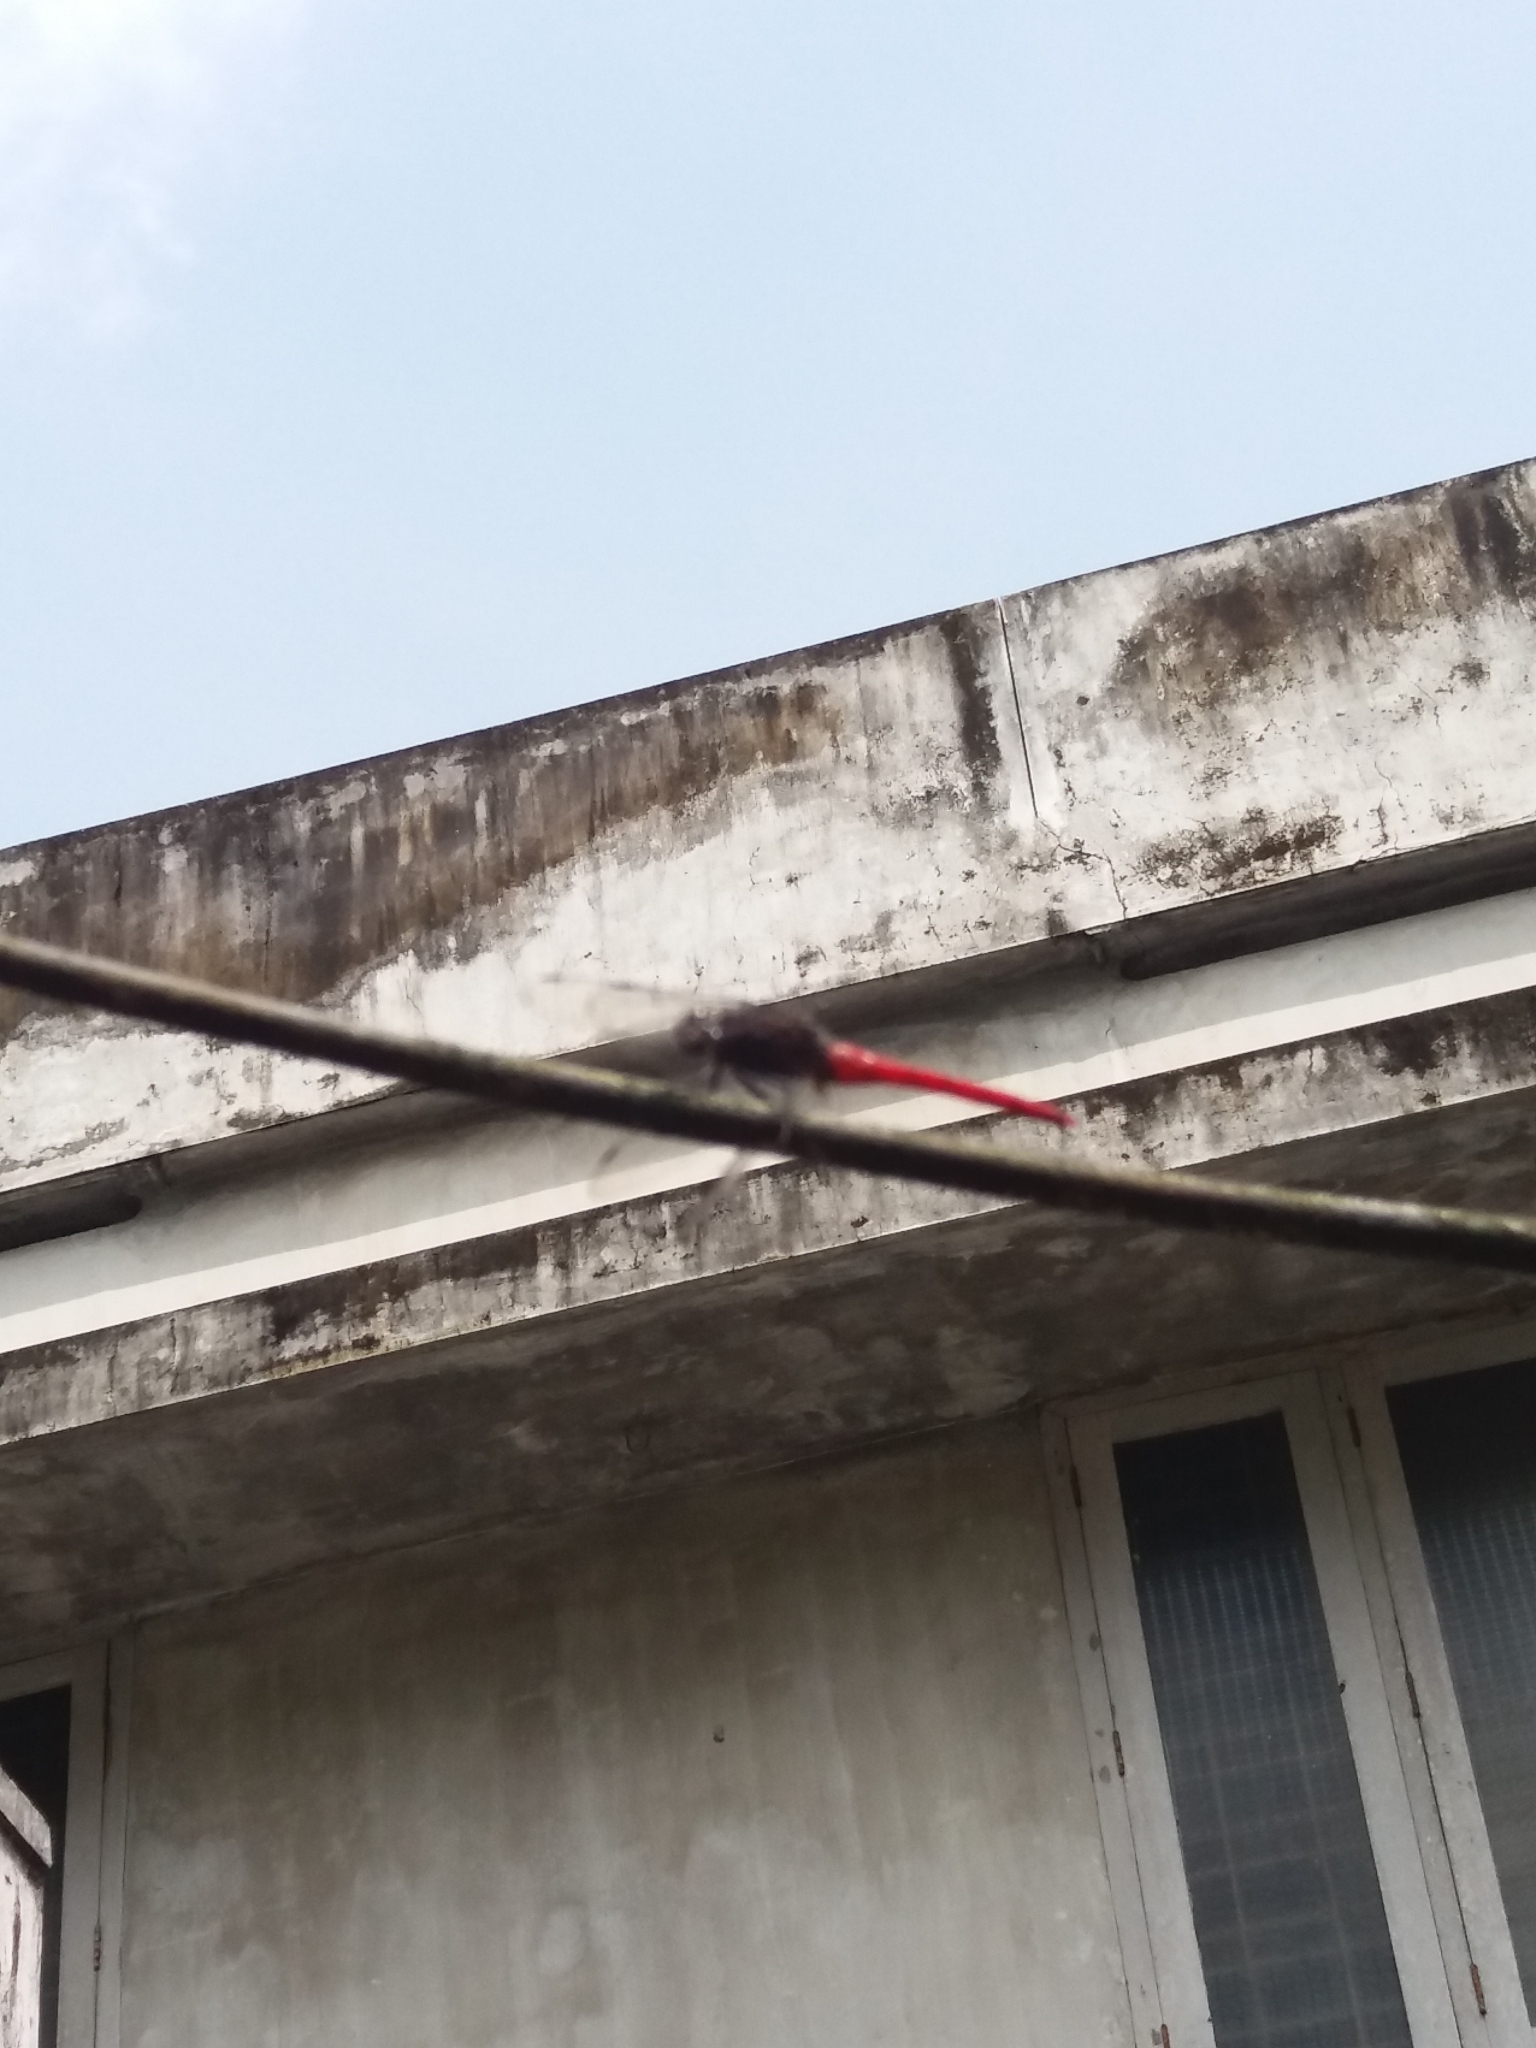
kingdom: Animalia
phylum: Arthropoda
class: Insecta
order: Odonata
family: Libellulidae
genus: Orthetrum
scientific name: Orthetrum chrysis
